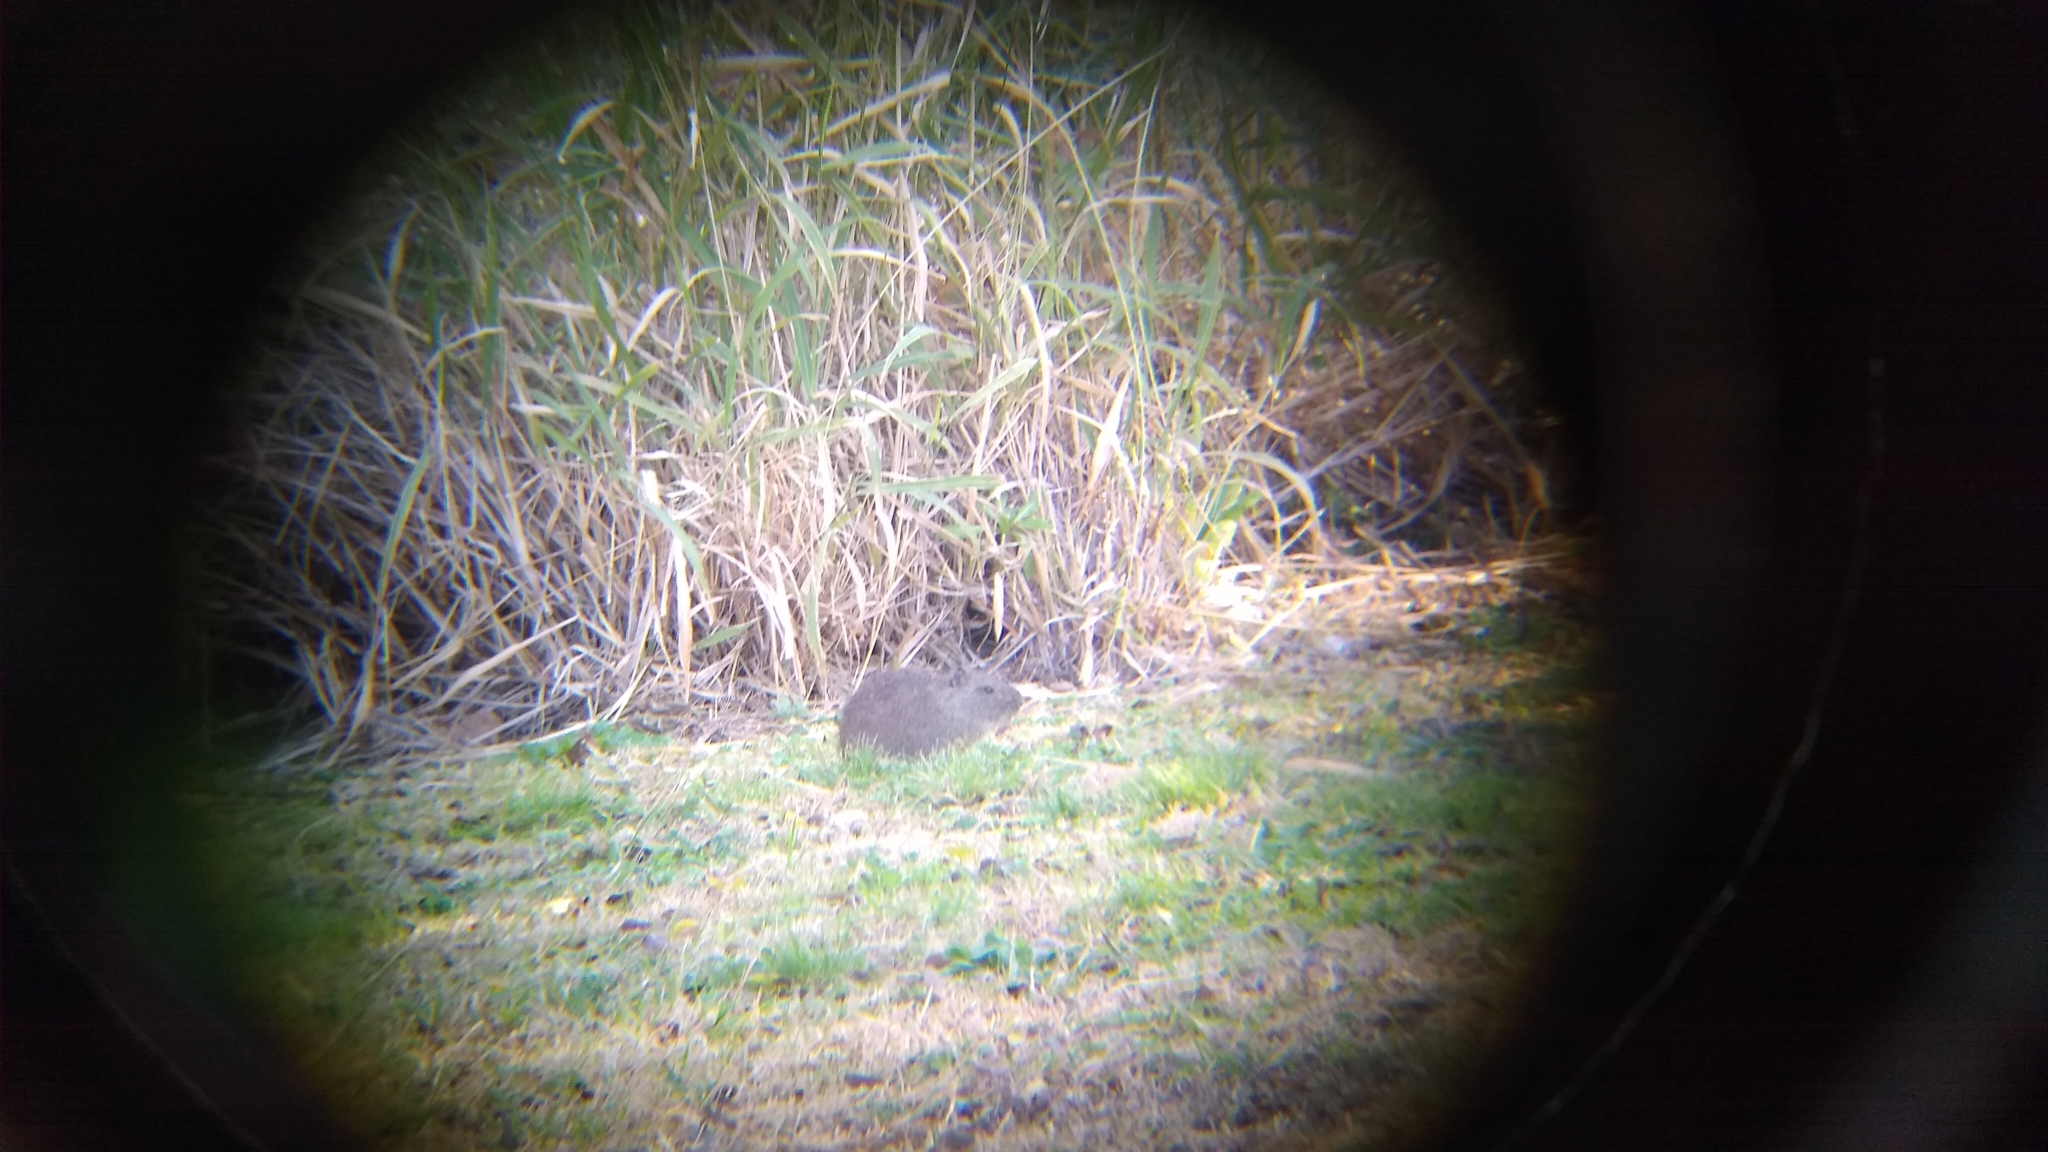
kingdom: Animalia
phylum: Chordata
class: Mammalia
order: Rodentia
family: Caviidae
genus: Cavia
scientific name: Cavia aperea
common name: Brazilian guinea pig
